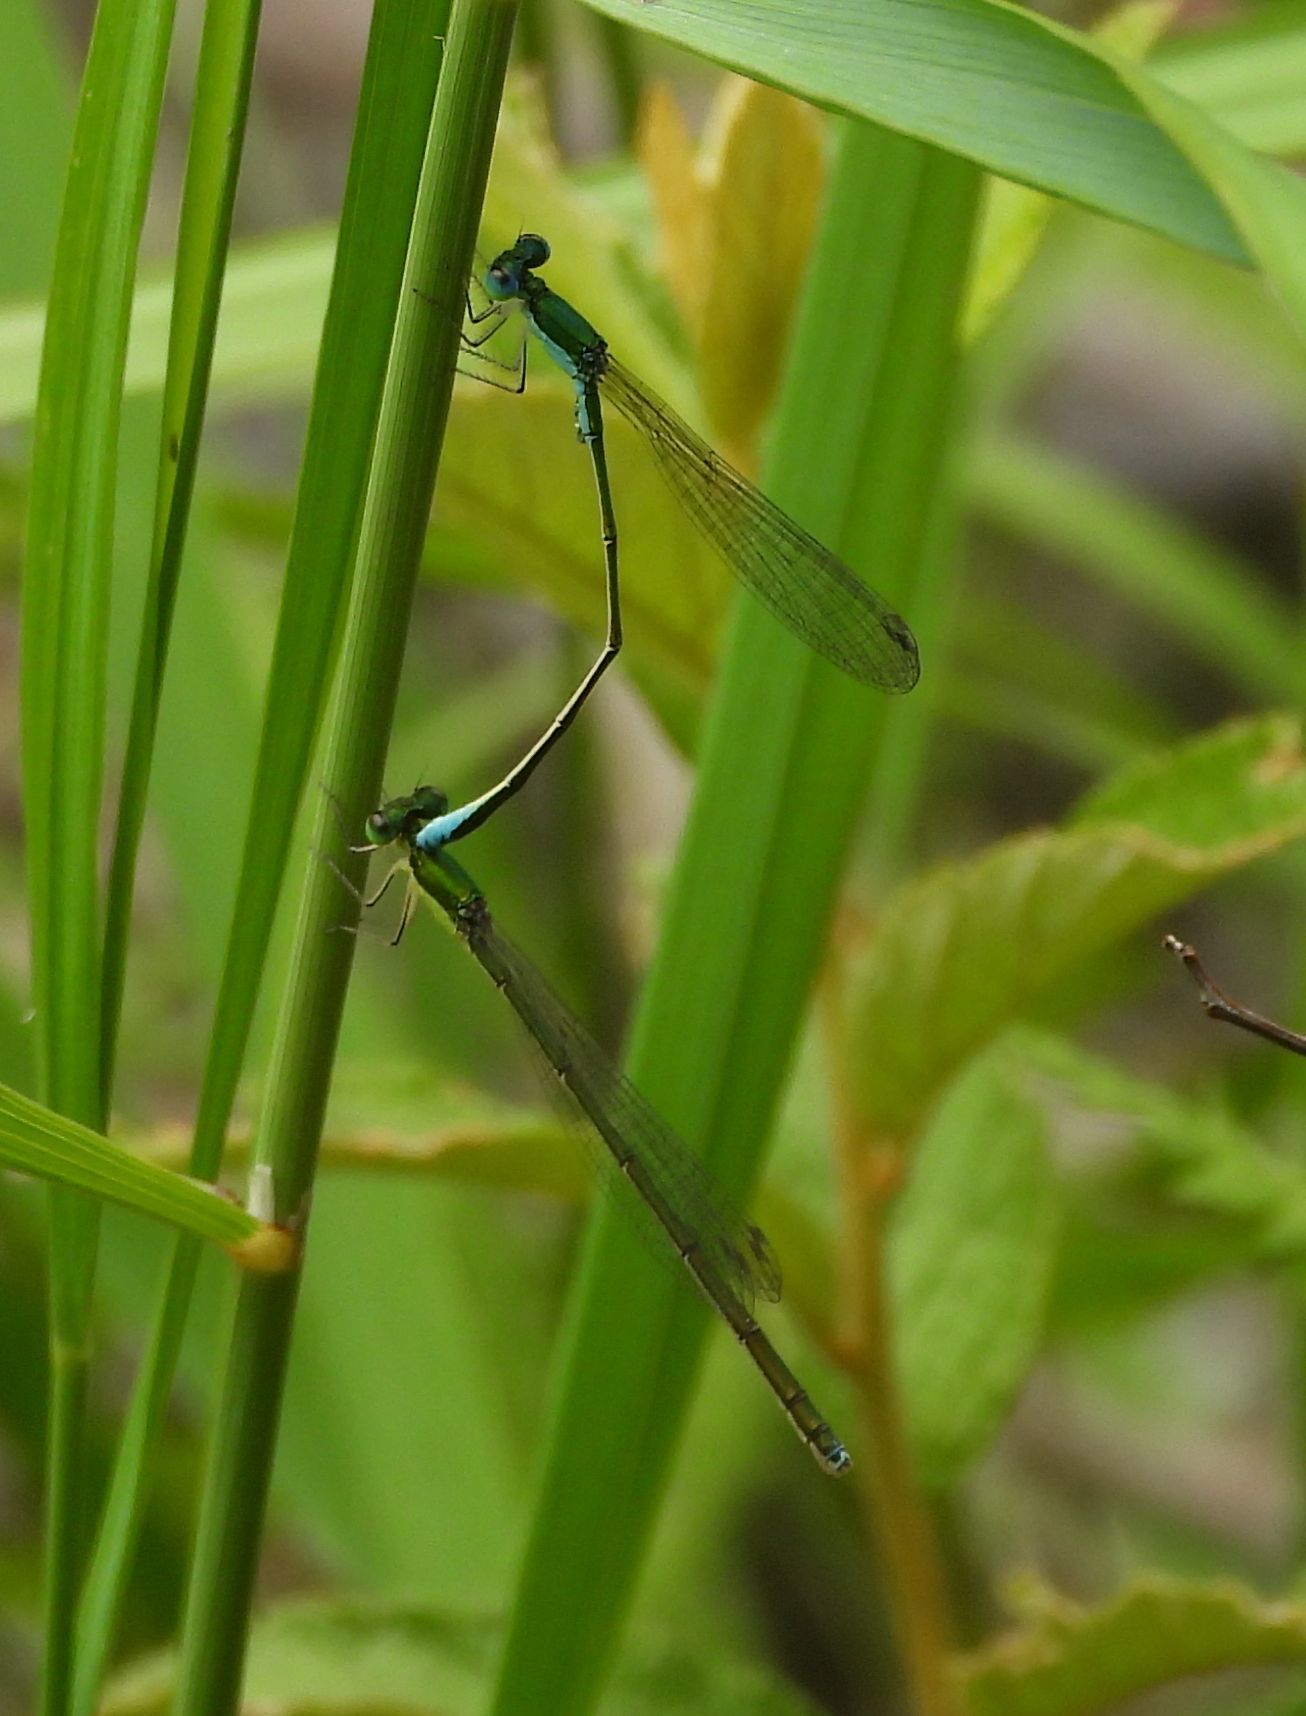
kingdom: Animalia
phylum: Arthropoda
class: Insecta
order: Odonata
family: Coenagrionidae
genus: Nehalennia
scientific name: Nehalennia irene
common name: Sedge sprite
